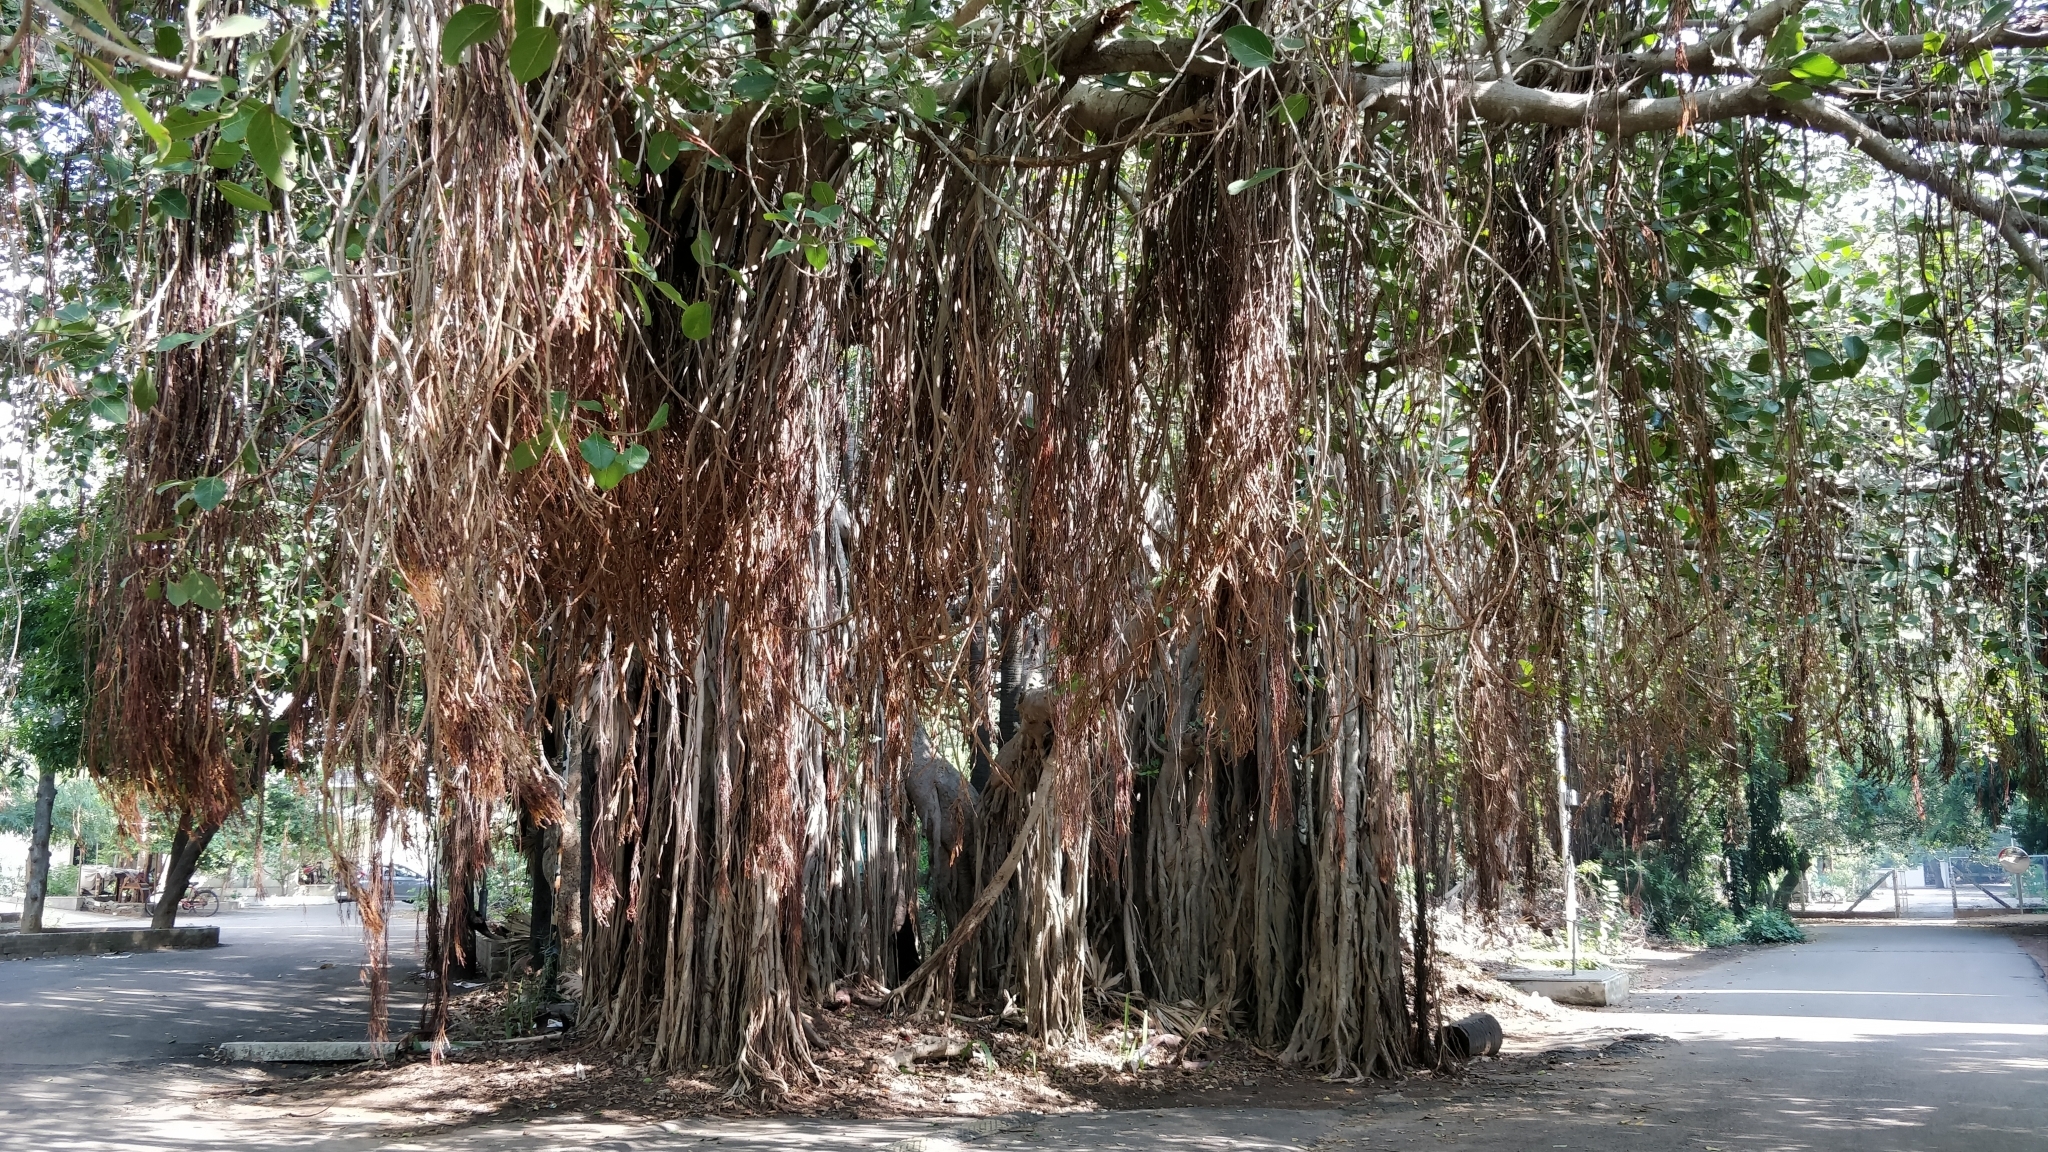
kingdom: Plantae
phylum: Tracheophyta
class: Magnoliopsida
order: Rosales
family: Moraceae
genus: Ficus
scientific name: Ficus benghalensis
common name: Indian banyan
